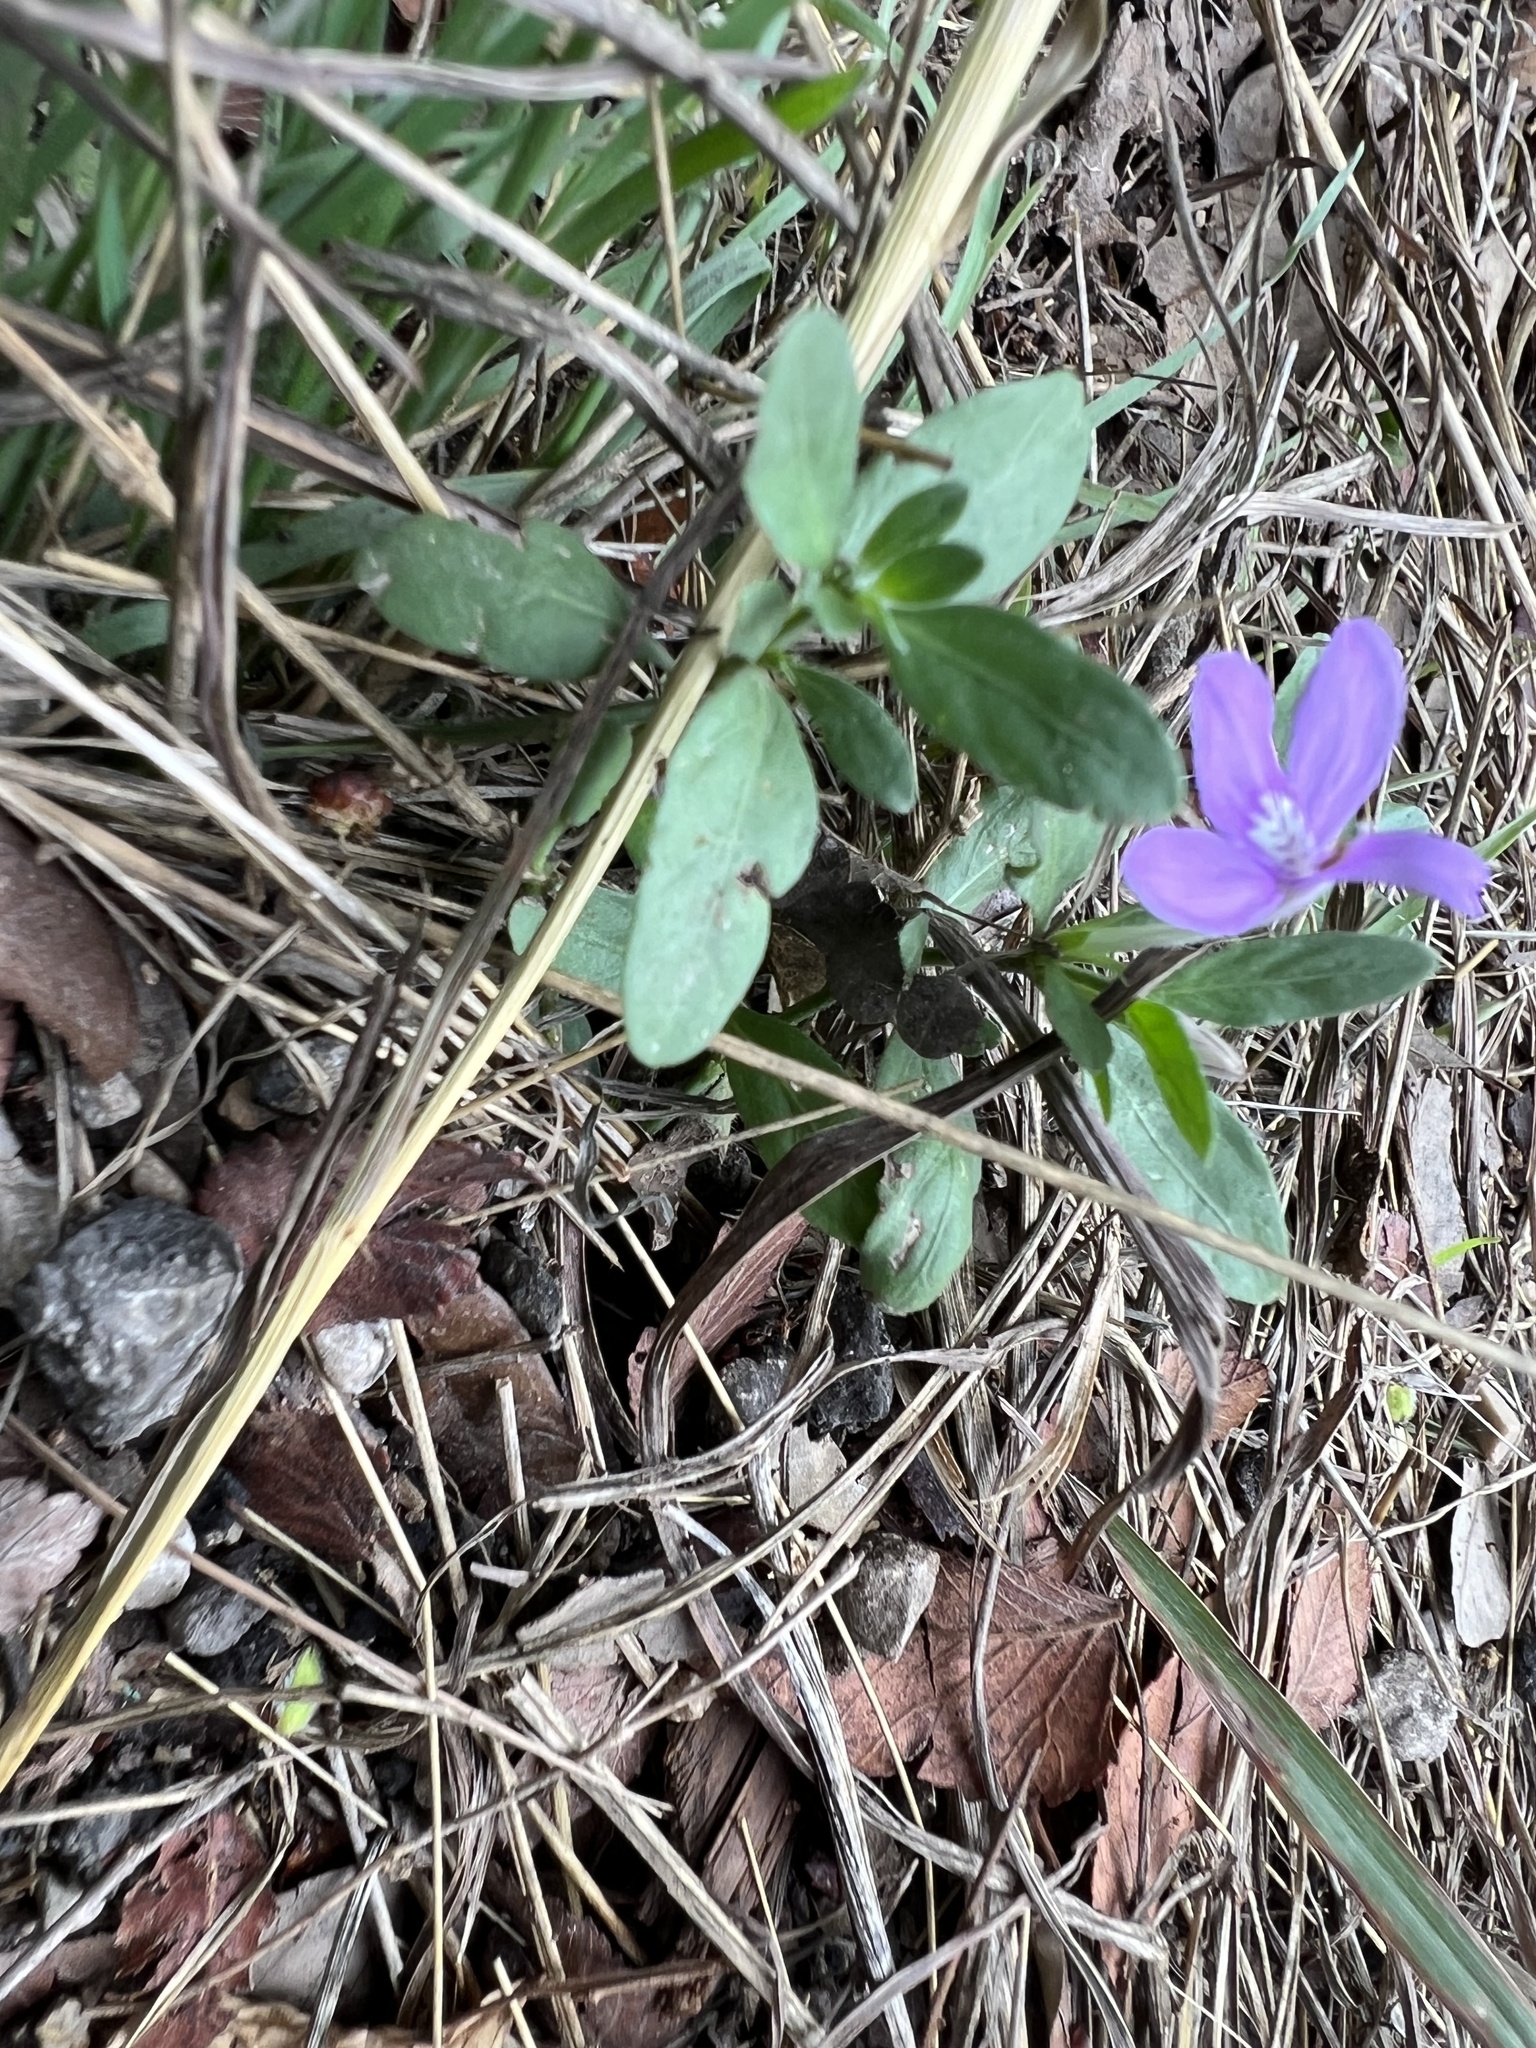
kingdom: Plantae
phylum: Tracheophyta
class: Magnoliopsida
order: Lamiales
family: Acanthaceae
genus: Justicia
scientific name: Justicia pilosella
